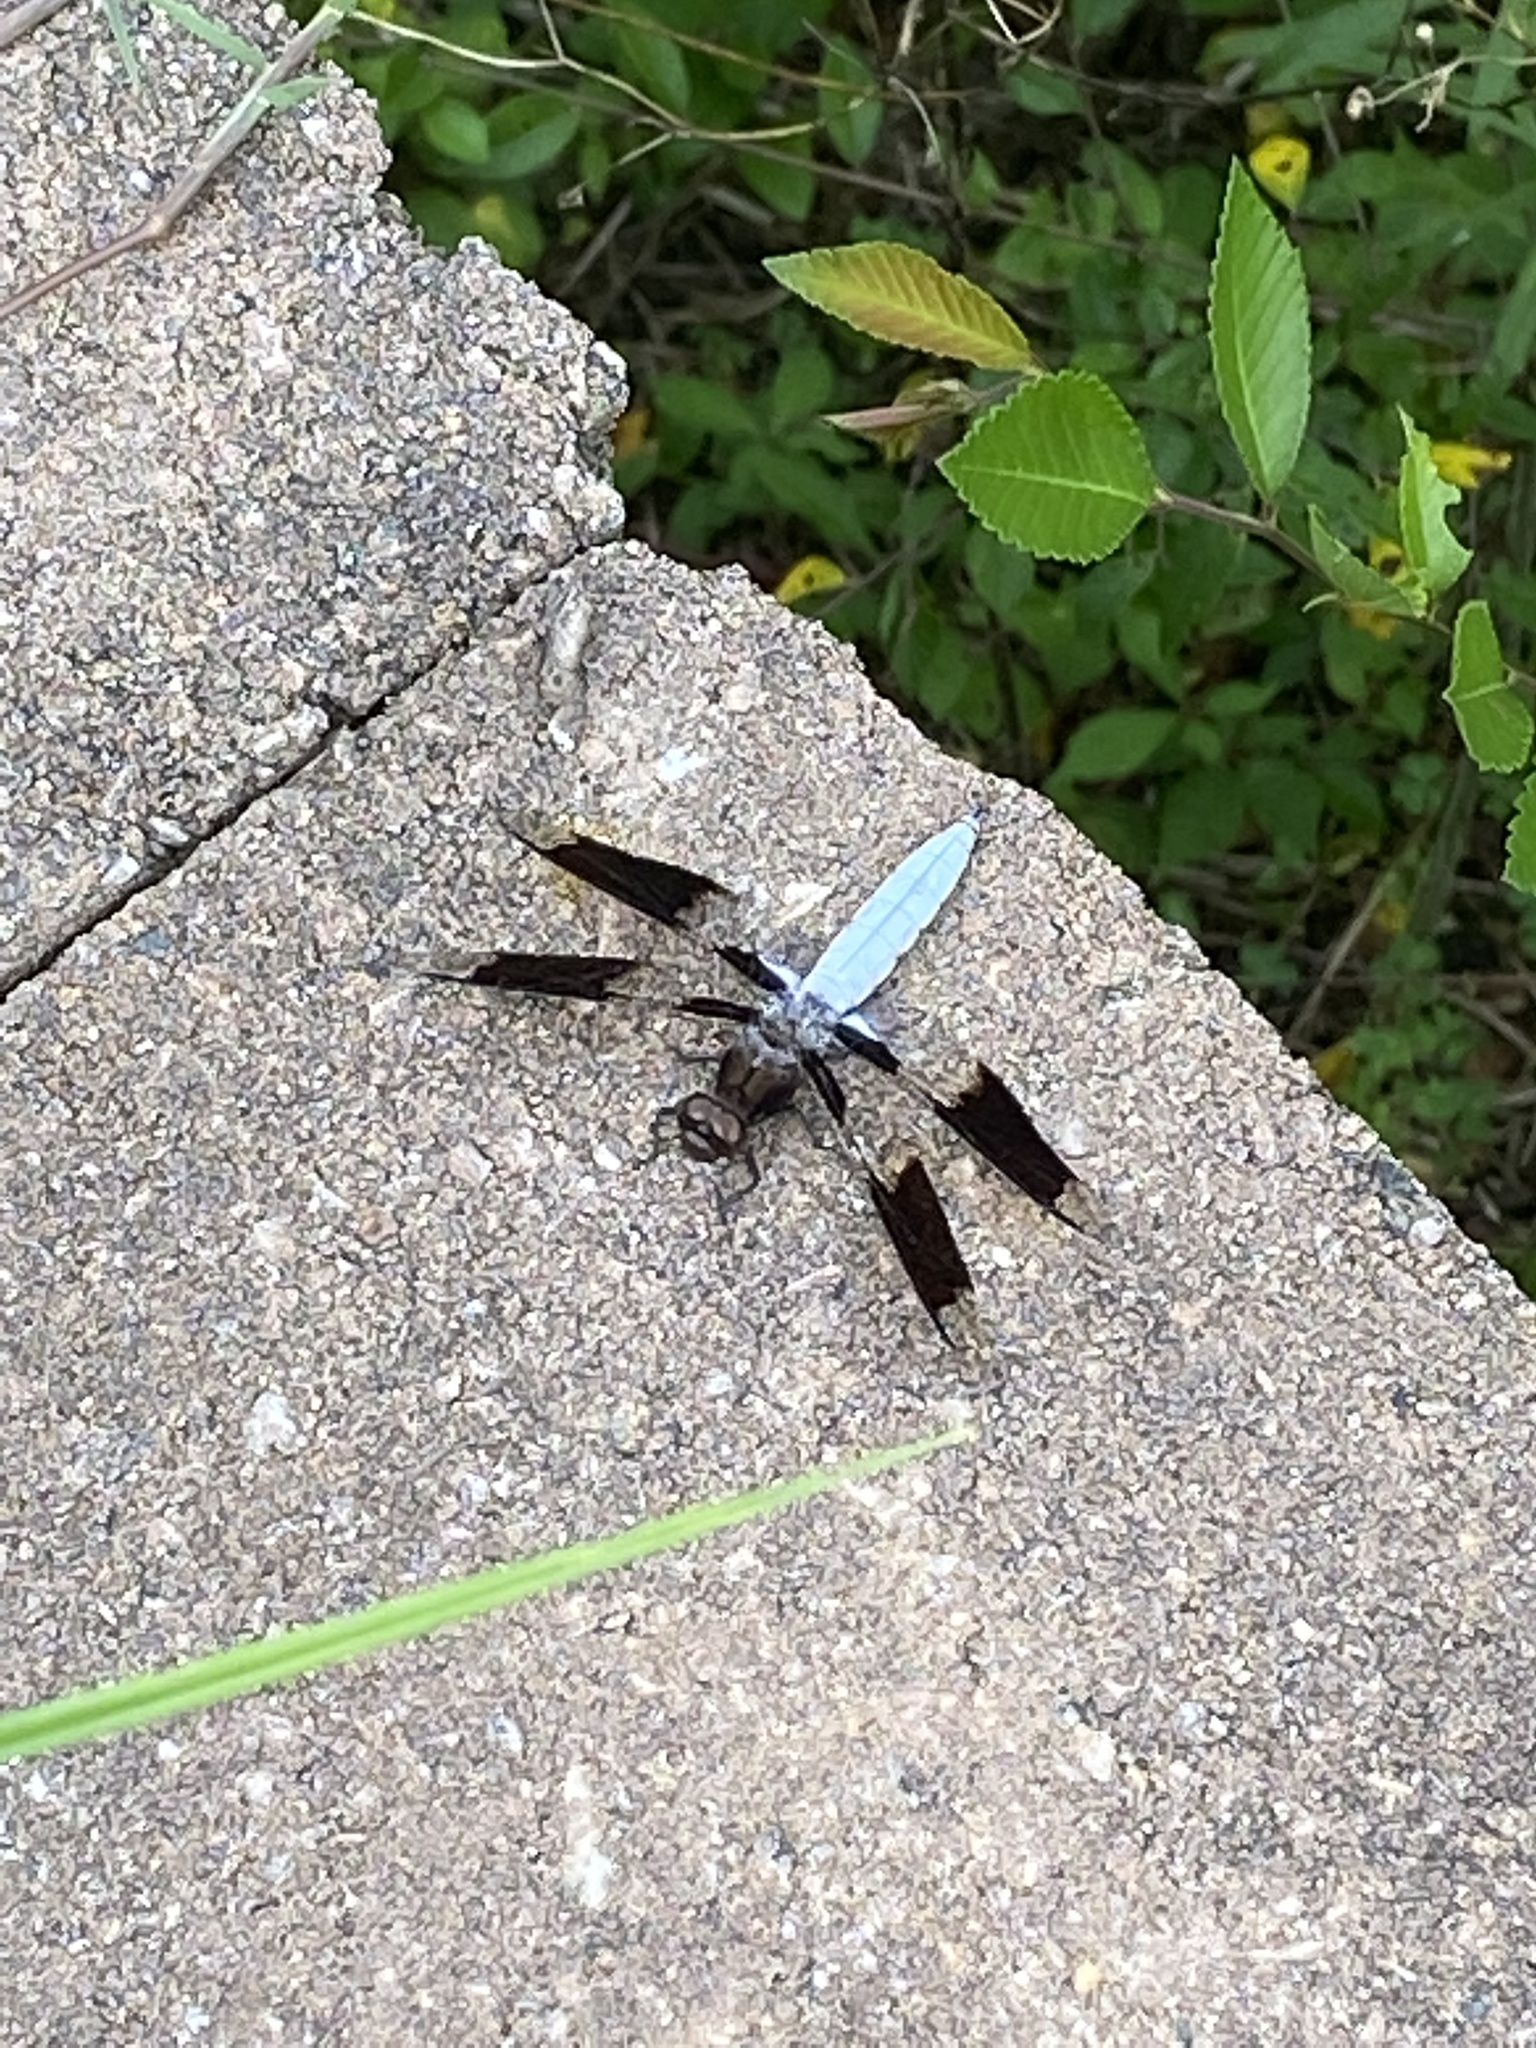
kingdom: Animalia
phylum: Arthropoda
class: Insecta
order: Odonata
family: Libellulidae
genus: Plathemis
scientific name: Plathemis lydia
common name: Common whitetail
